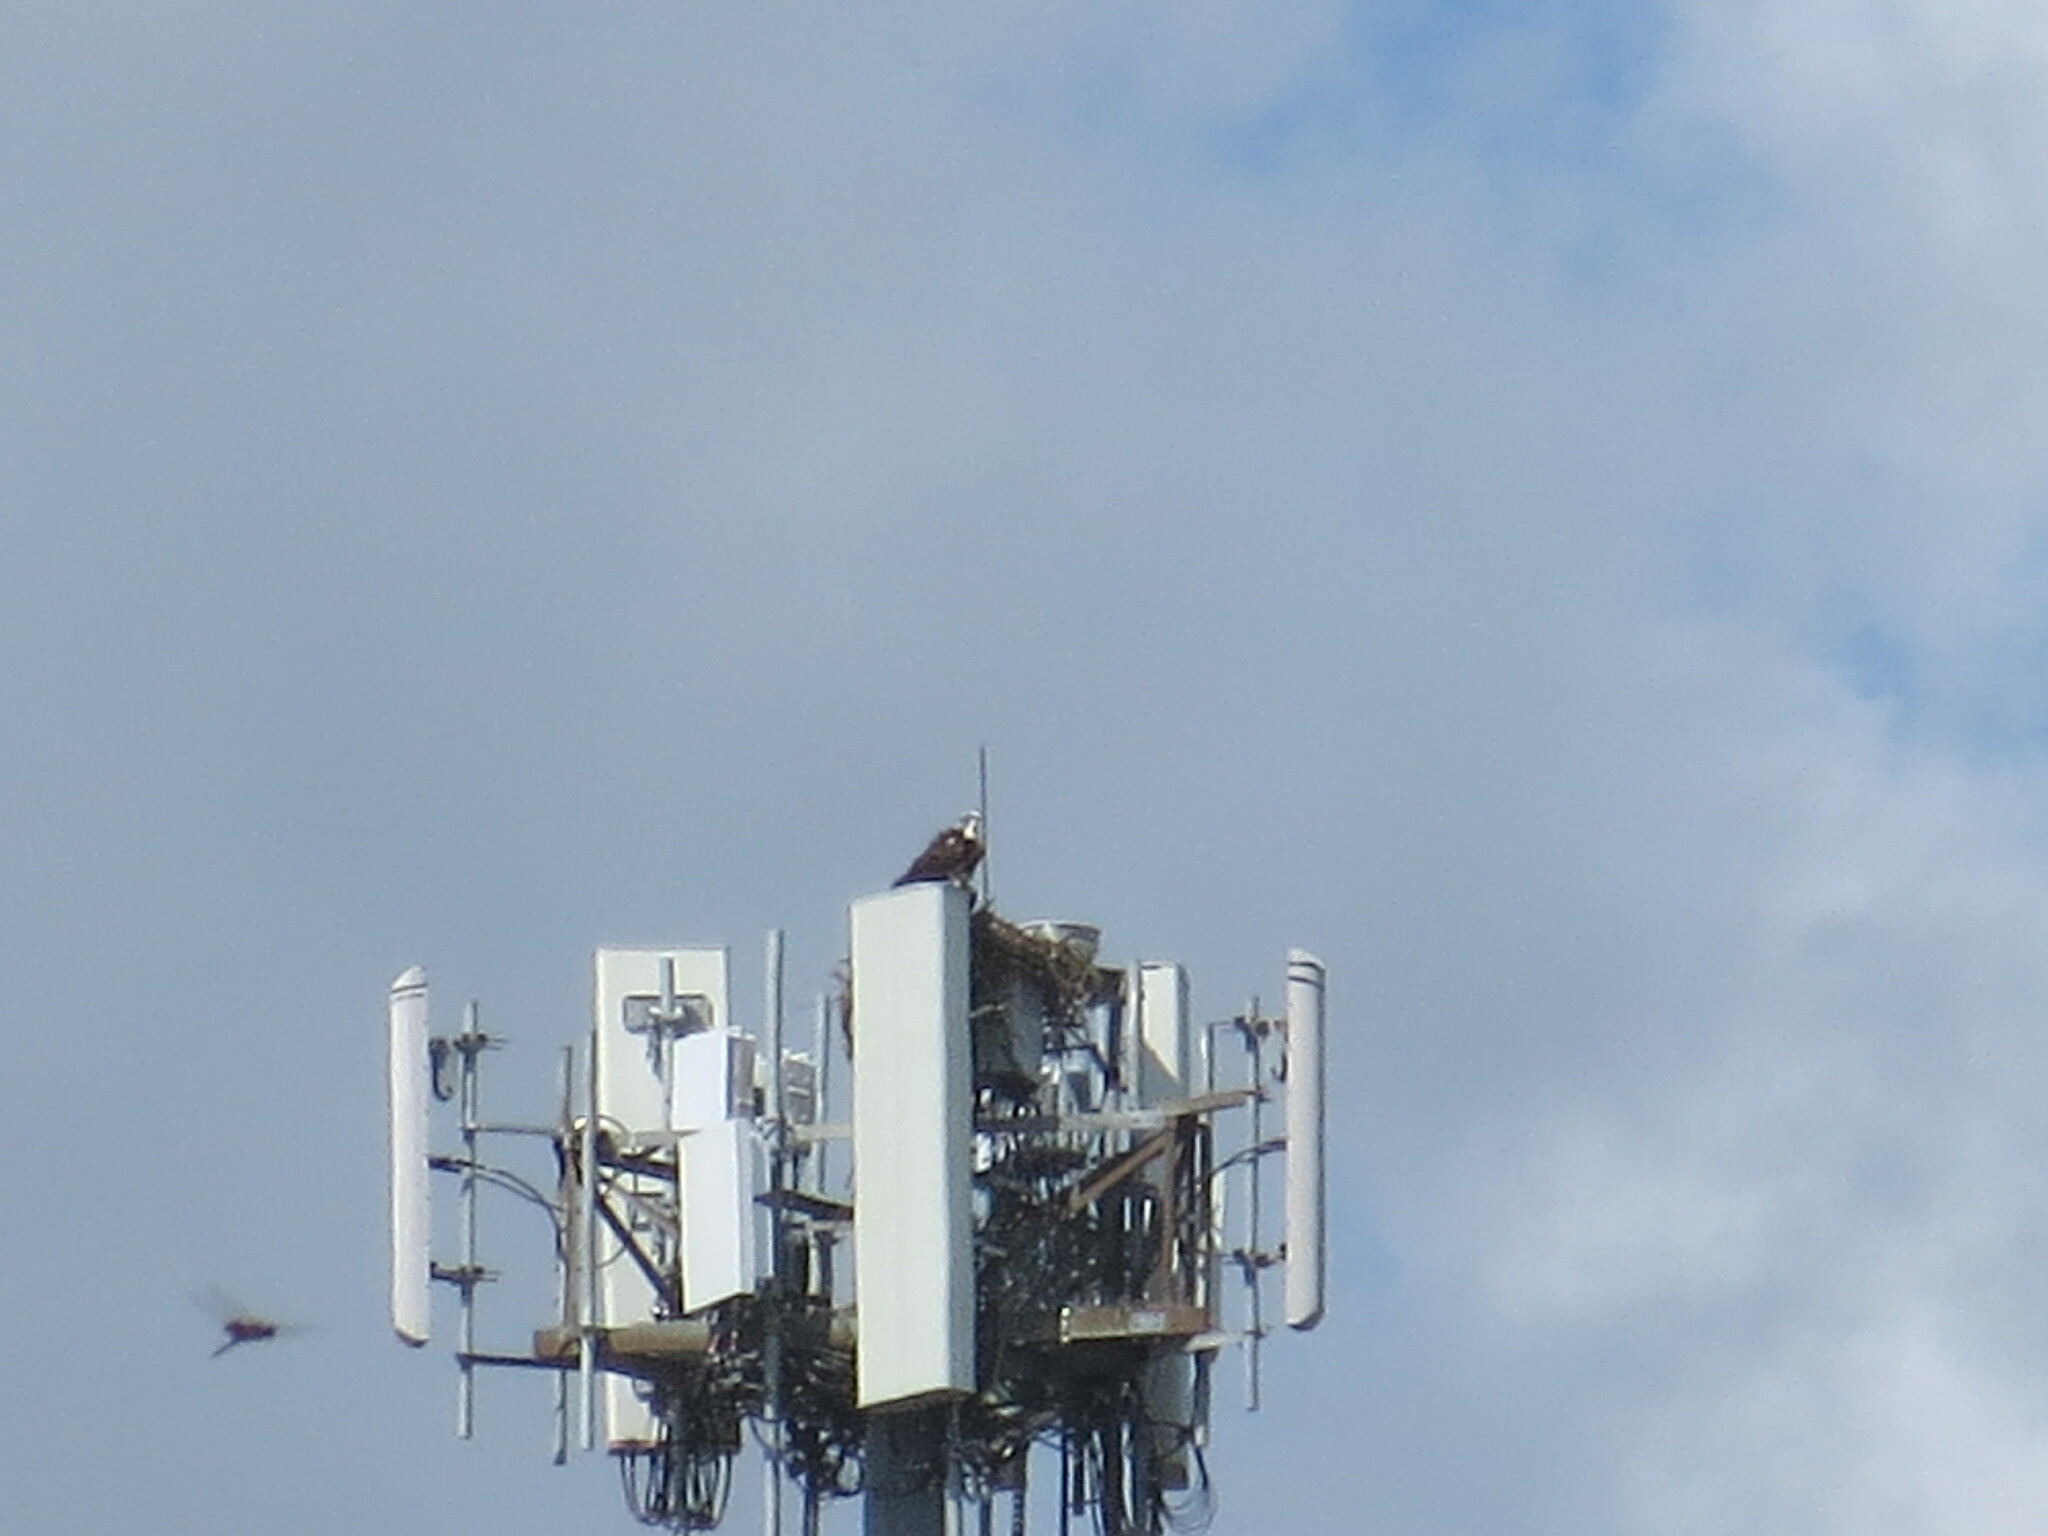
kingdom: Animalia
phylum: Chordata
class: Aves
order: Accipitriformes
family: Pandionidae
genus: Pandion
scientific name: Pandion haliaetus
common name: Osprey
